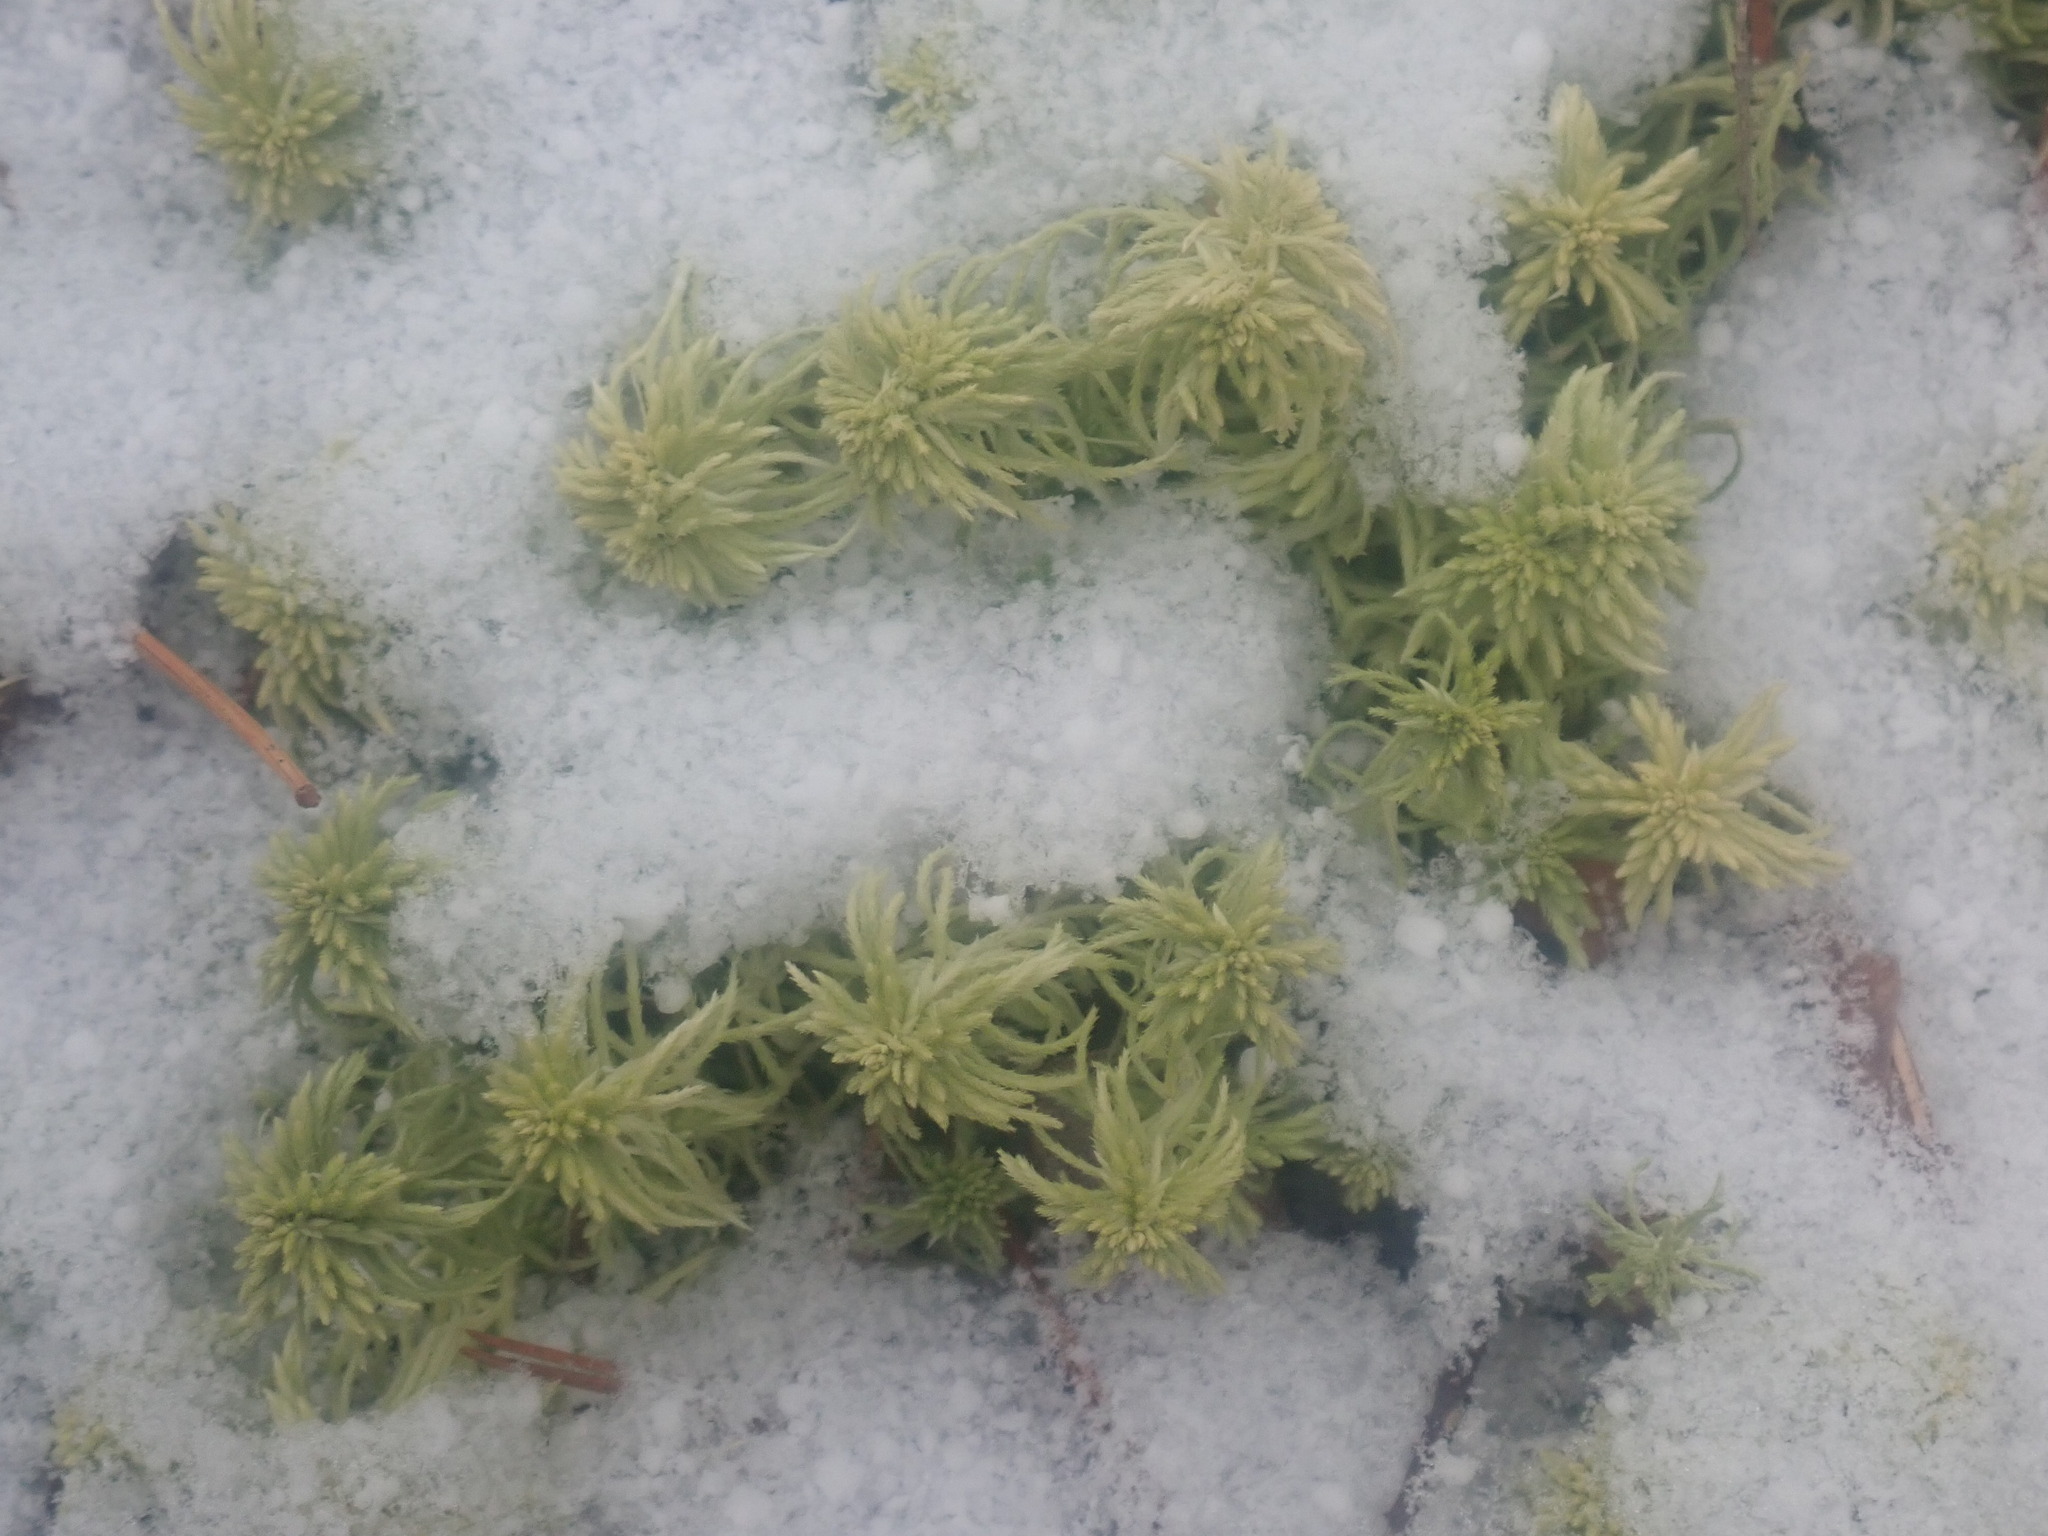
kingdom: Plantae
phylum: Bryophyta
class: Sphagnopsida
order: Sphagnales
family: Sphagnaceae
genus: Sphagnum
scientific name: Sphagnum
